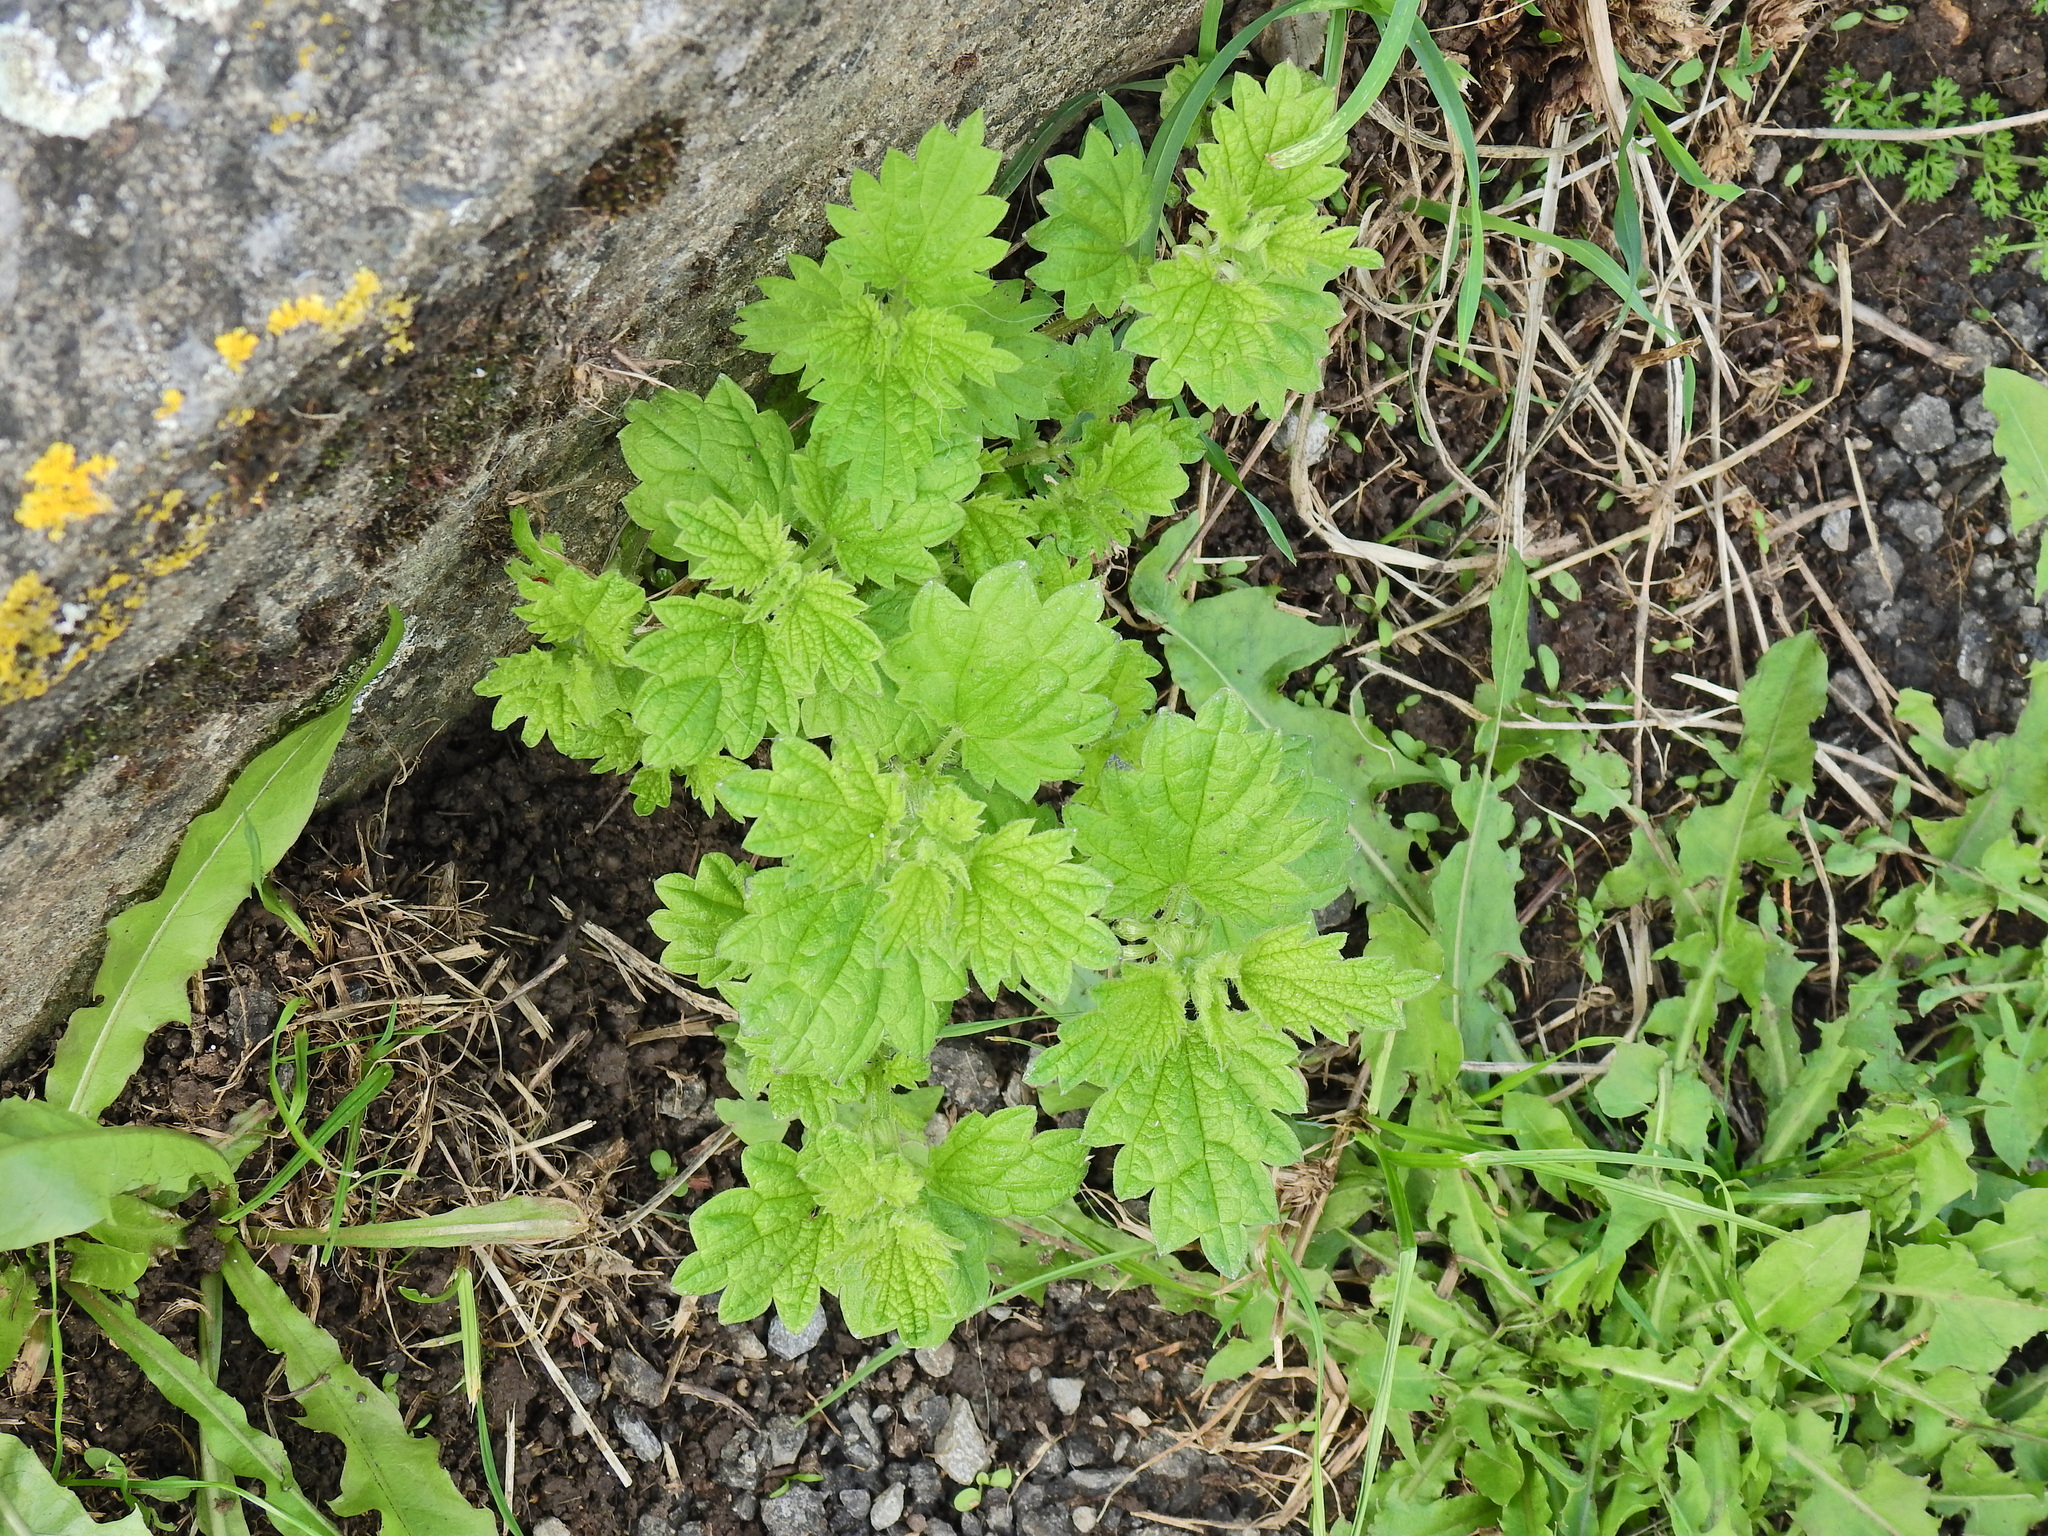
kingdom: Plantae
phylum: Tracheophyta
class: Magnoliopsida
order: Rosales
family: Urticaceae
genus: Urtica
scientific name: Urtica dioica
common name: Common nettle
